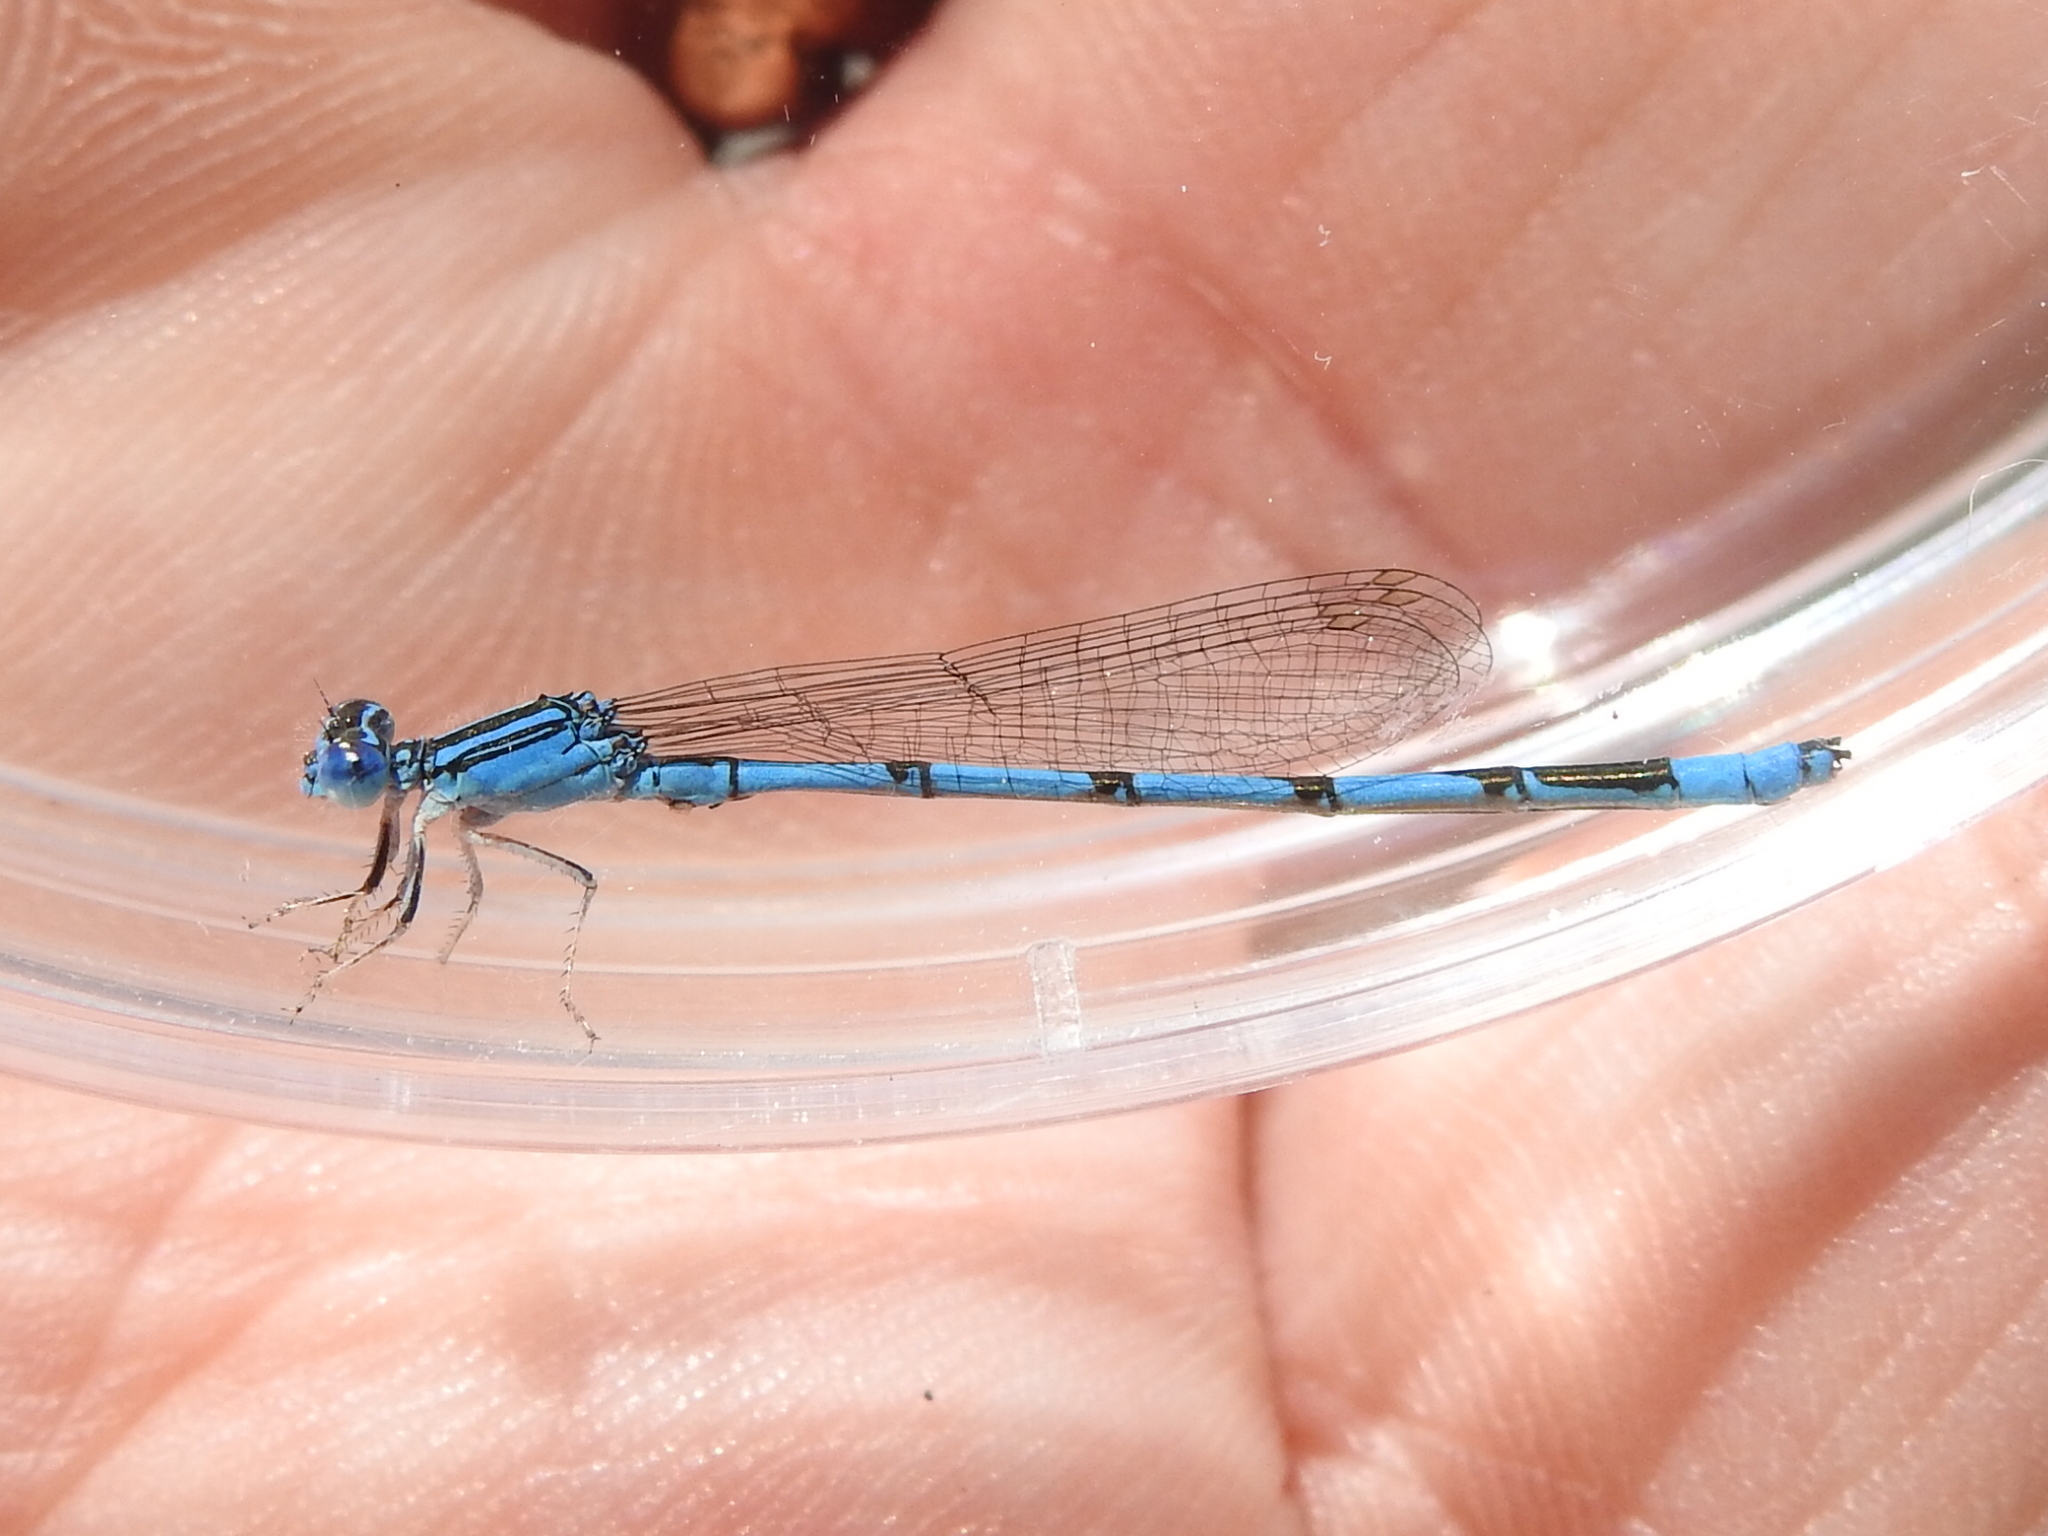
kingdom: Animalia
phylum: Arthropoda
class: Insecta
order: Odonata
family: Coenagrionidae
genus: Enallagma
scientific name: Enallagma basidens
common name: Double-striped bluet
